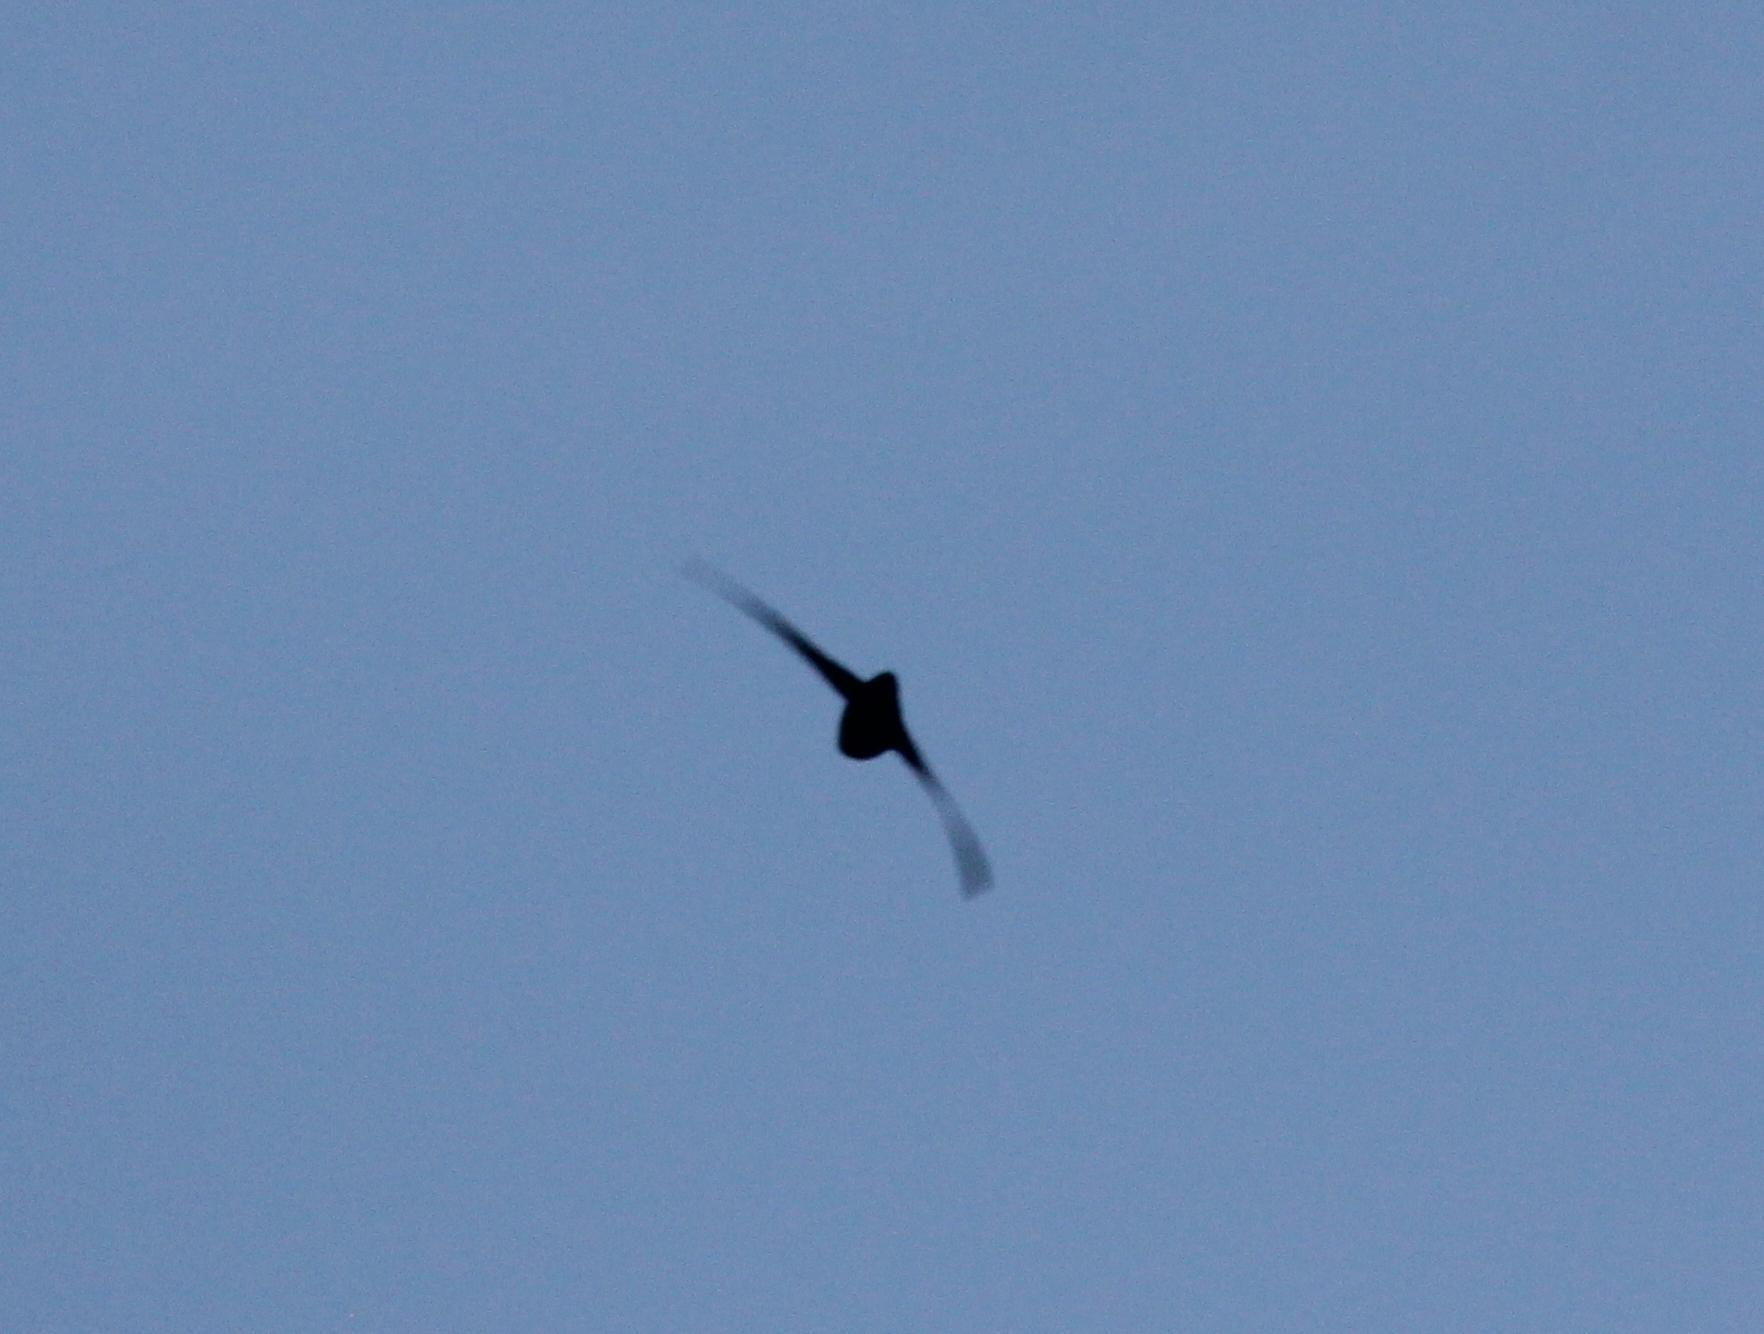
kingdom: Animalia
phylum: Chordata
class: Aves
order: Apodiformes
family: Apodidae
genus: Chaetura
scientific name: Chaetura pelagica
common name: Chimney swift
